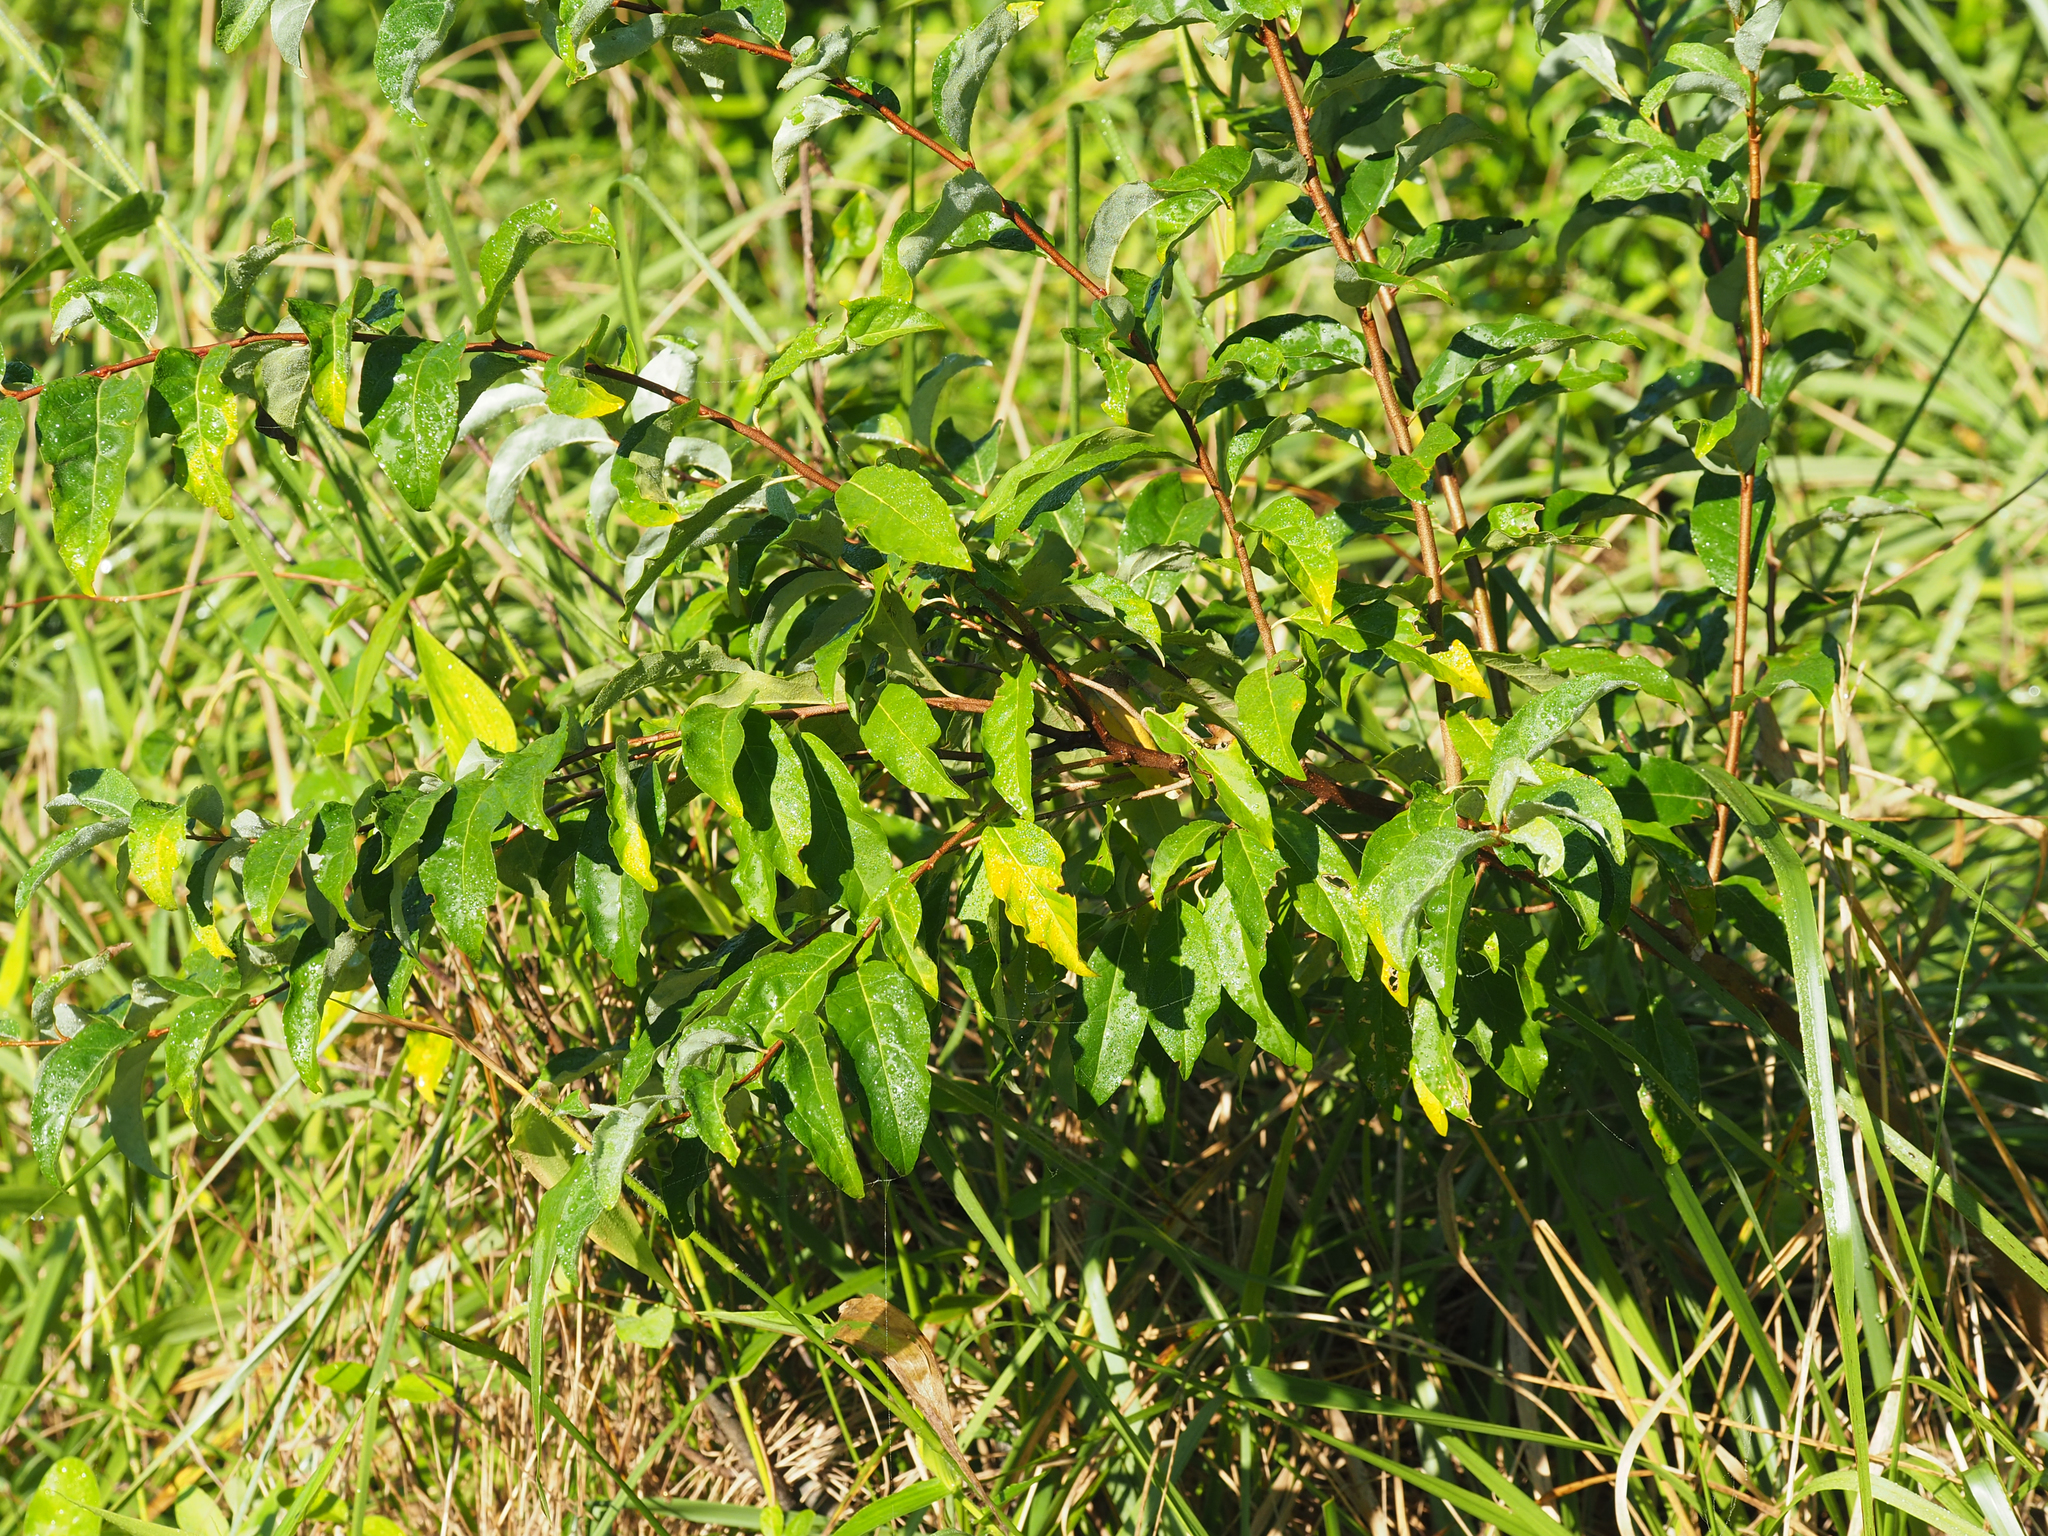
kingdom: Plantae
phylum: Tracheophyta
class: Magnoliopsida
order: Rosales
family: Elaeagnaceae
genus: Elaeagnus
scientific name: Elaeagnus umbellata
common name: Autumn olive
